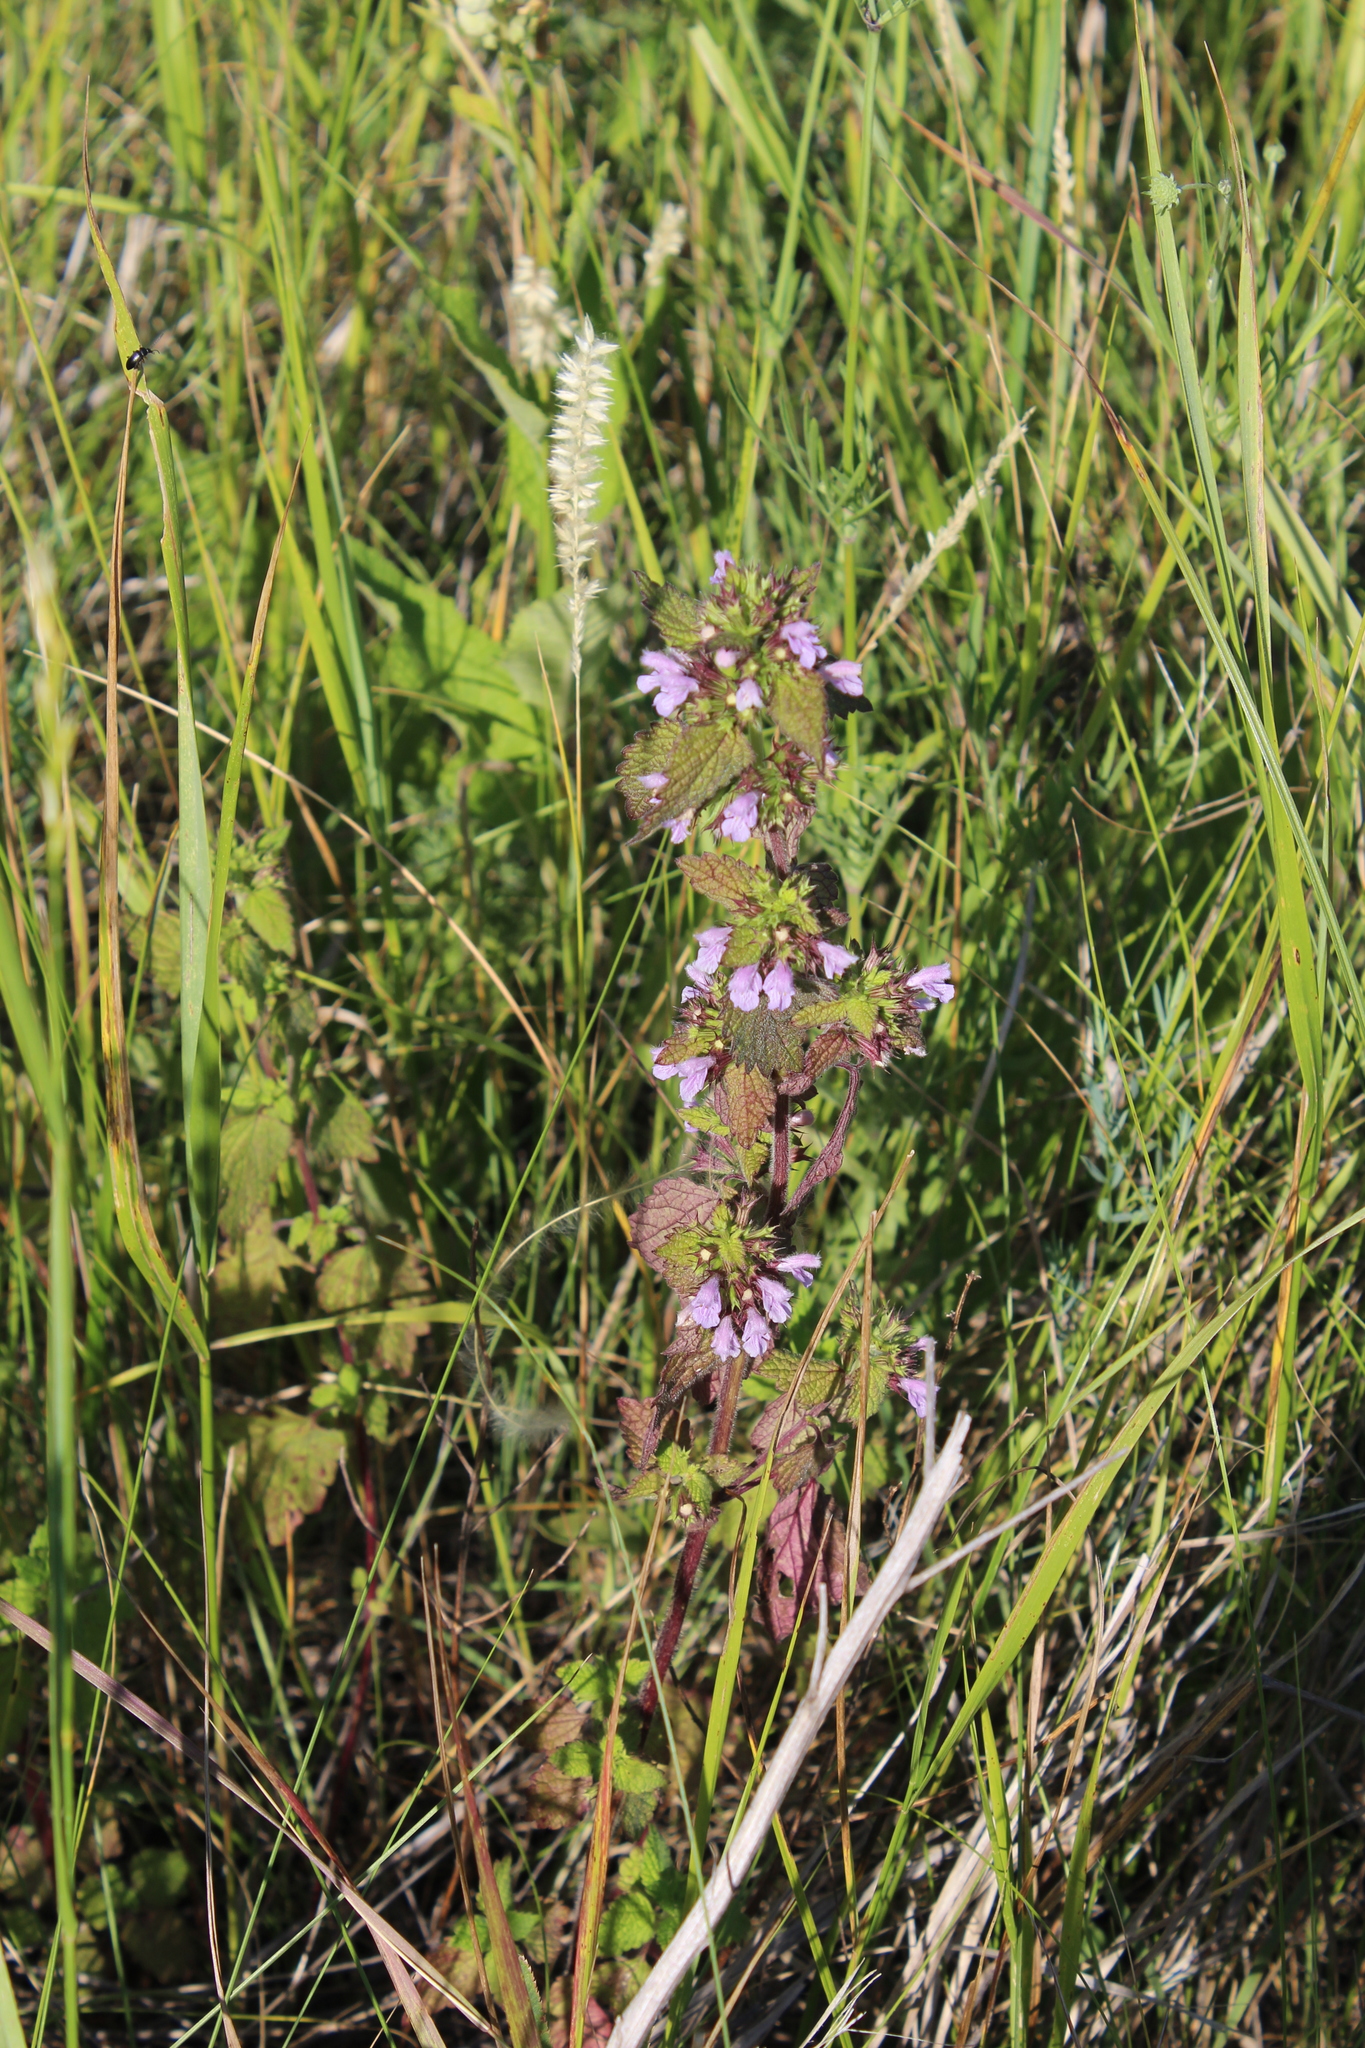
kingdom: Plantae
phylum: Tracheophyta
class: Magnoliopsida
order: Lamiales
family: Lamiaceae
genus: Ballota
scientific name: Ballota nigra
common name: Black horehound
